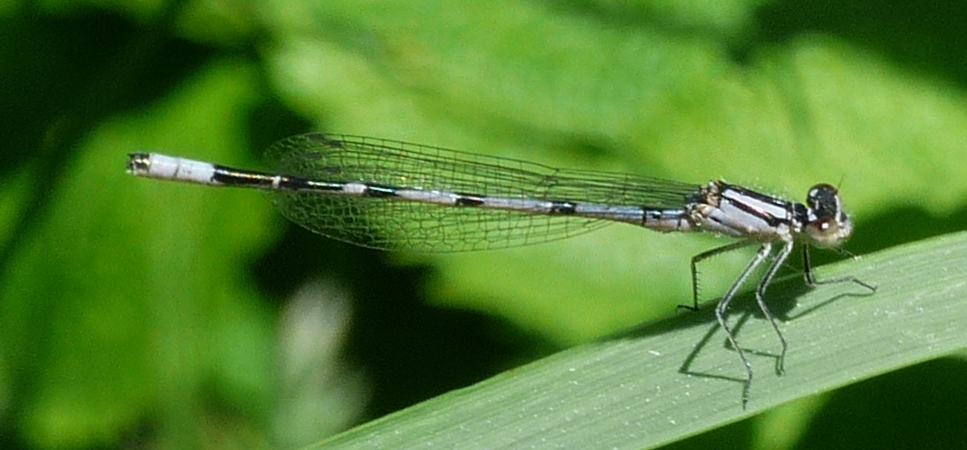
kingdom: Animalia
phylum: Arthropoda
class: Insecta
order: Odonata
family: Coenagrionidae
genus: Enallagma
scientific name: Enallagma ebrium
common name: Marsh bluet
